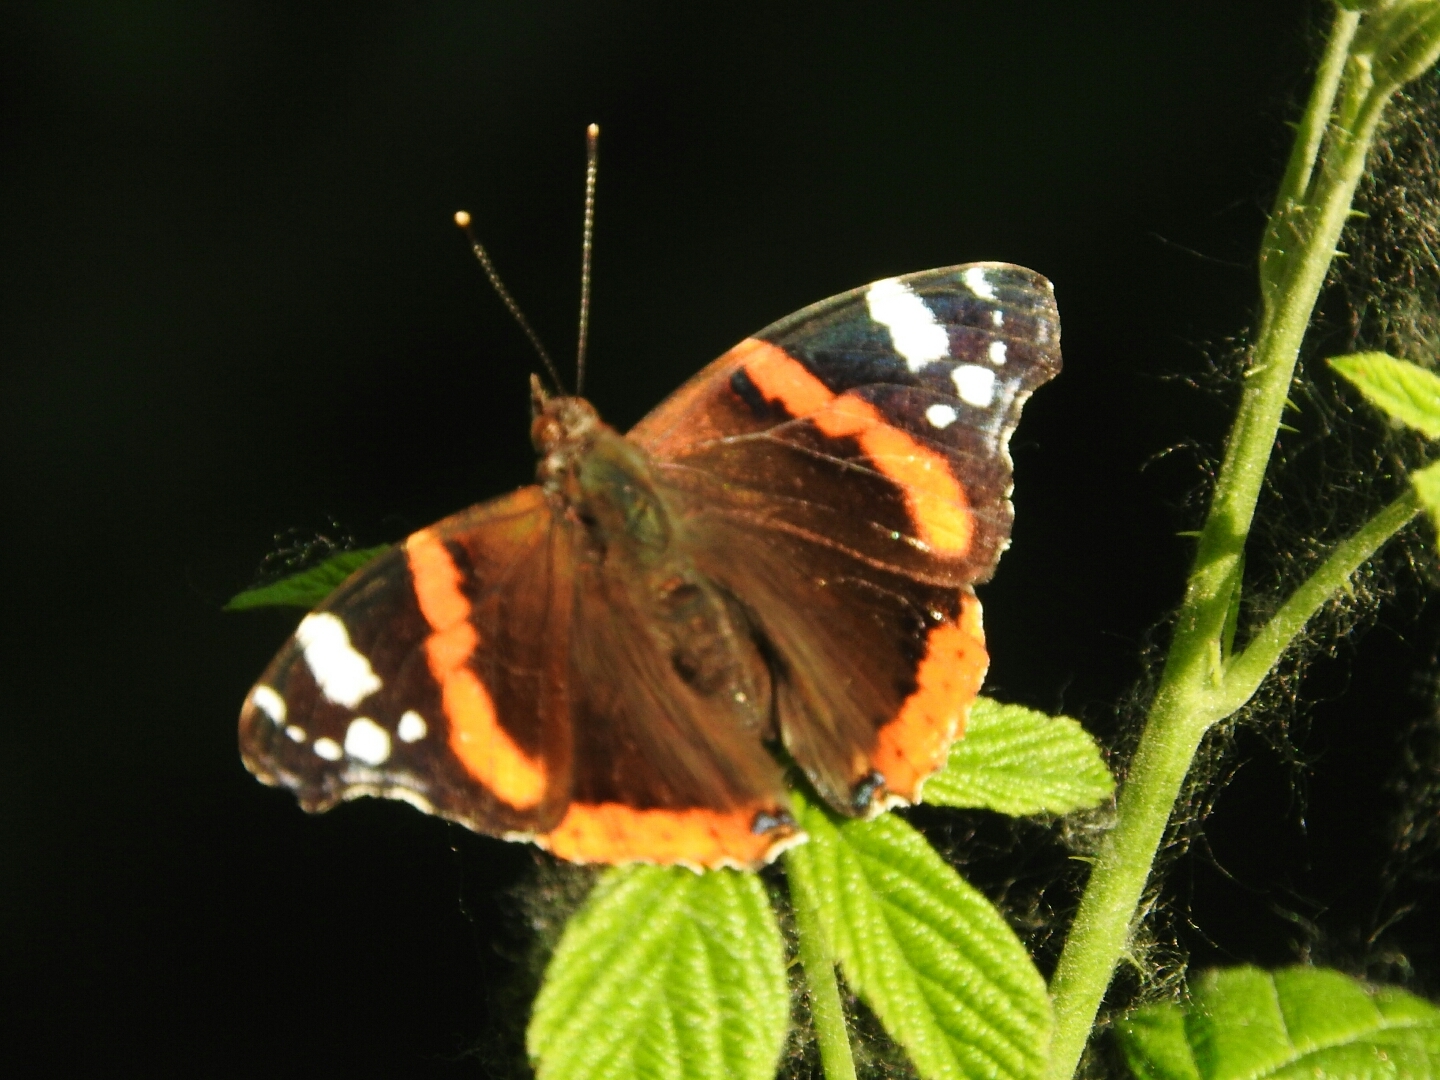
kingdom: Animalia
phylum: Arthropoda
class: Insecta
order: Lepidoptera
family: Nymphalidae
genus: Vanessa
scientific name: Vanessa atalanta
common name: Red admiral
